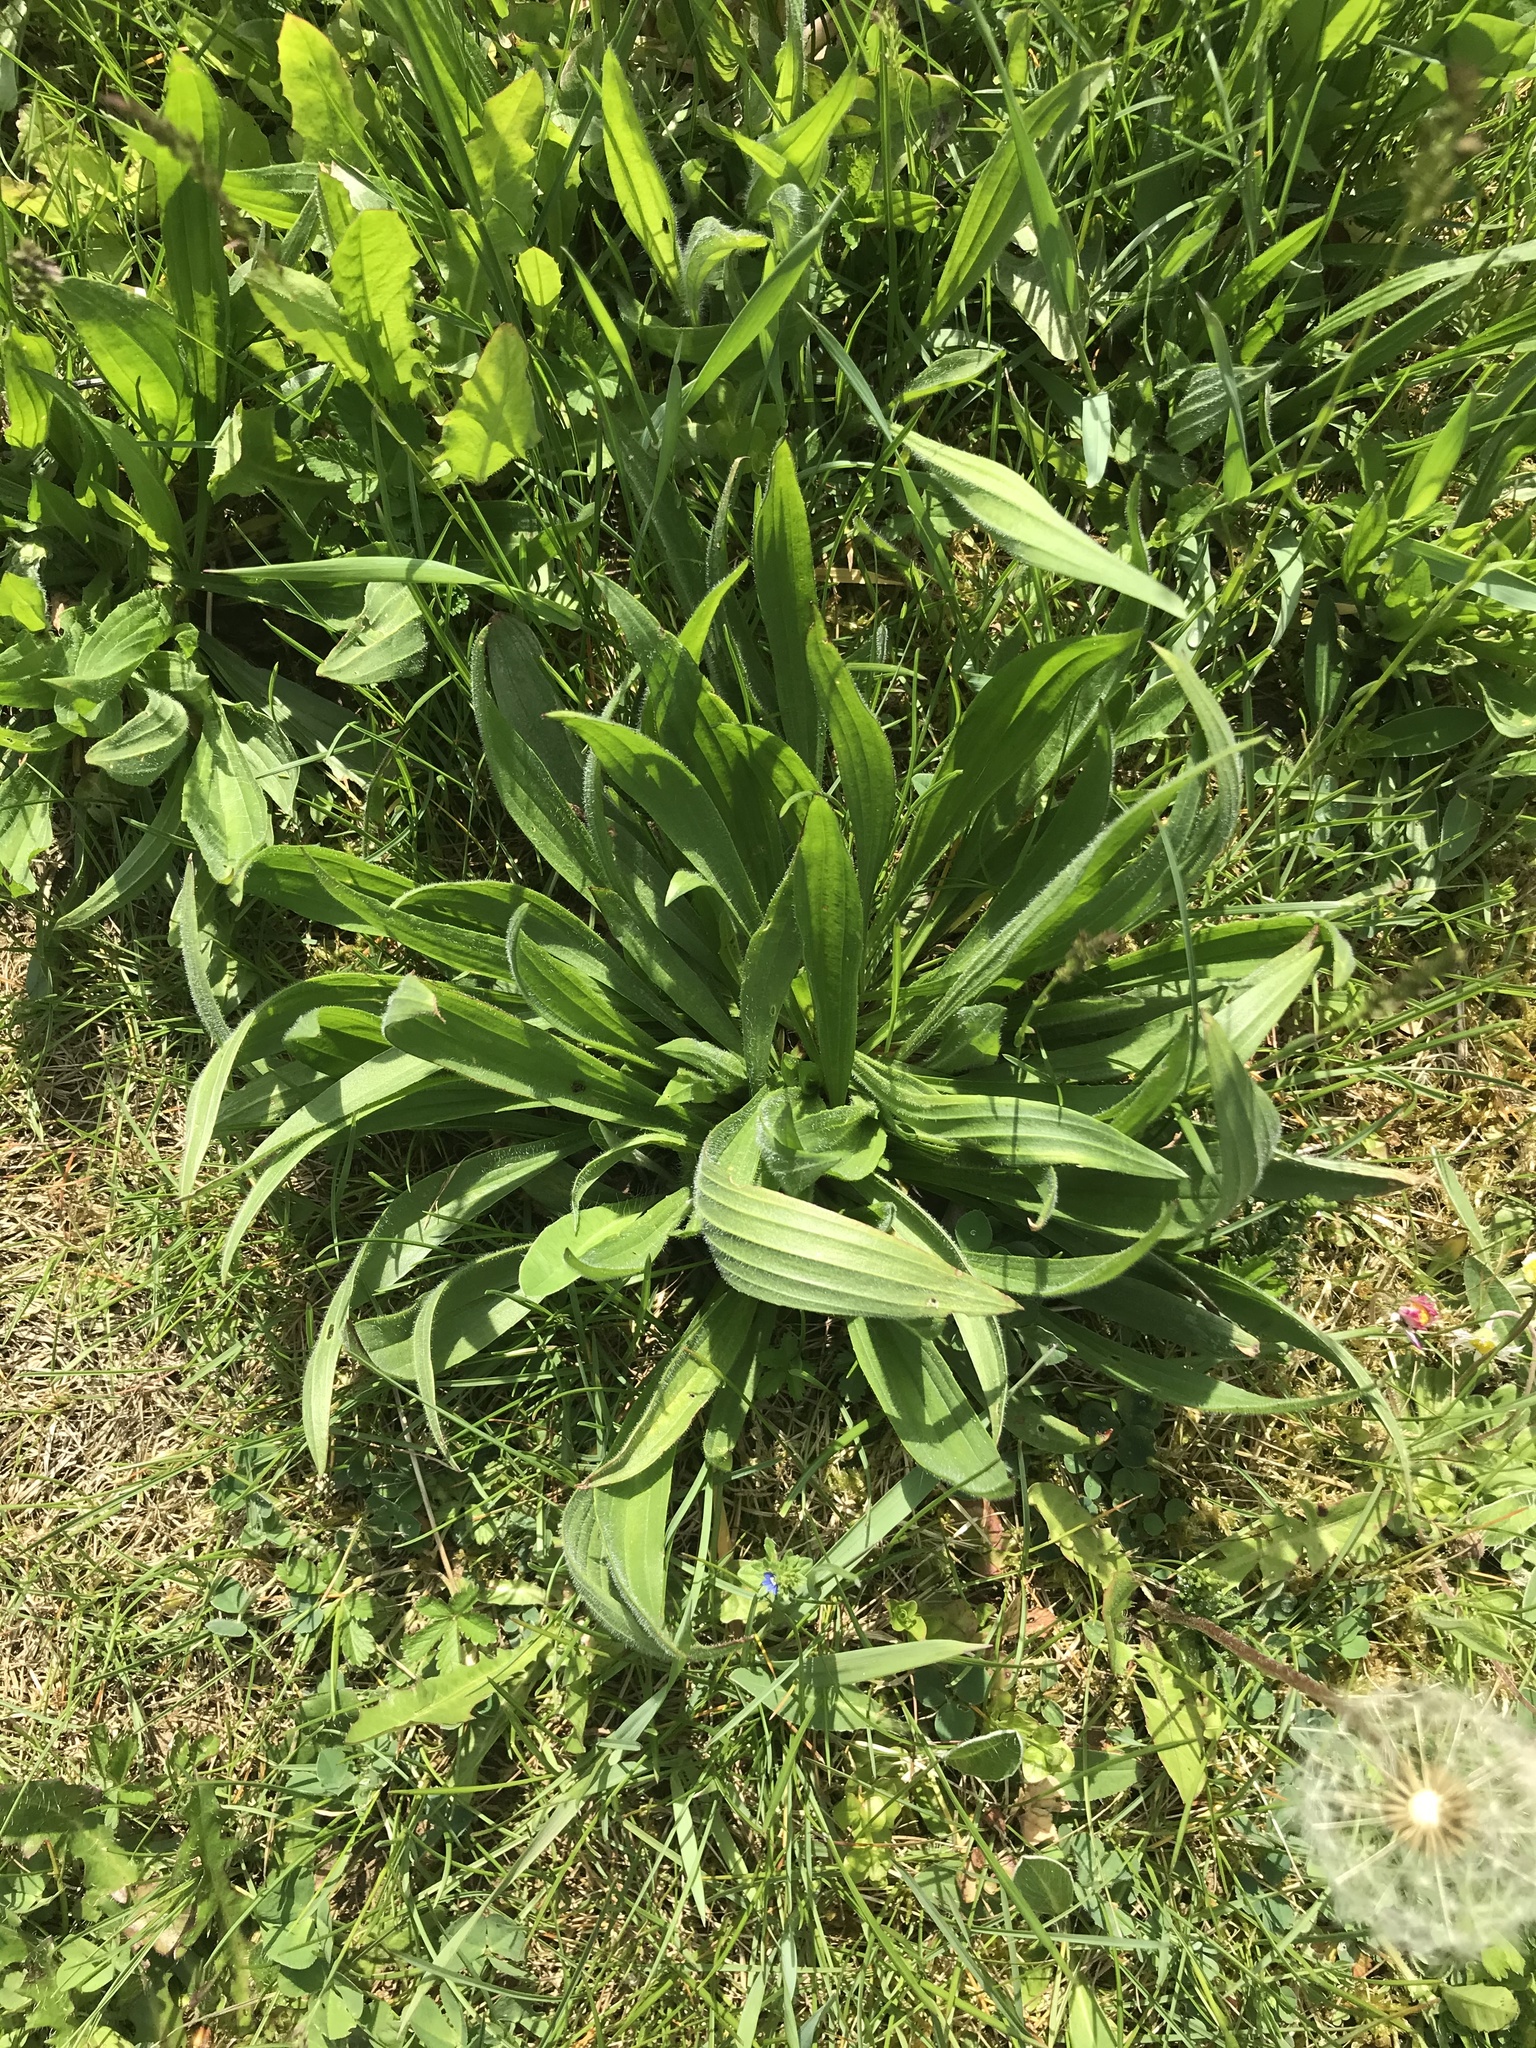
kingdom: Plantae
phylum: Tracheophyta
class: Magnoliopsida
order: Lamiales
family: Plantaginaceae
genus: Plantago
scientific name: Plantago lanceolata
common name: Ribwort plantain
